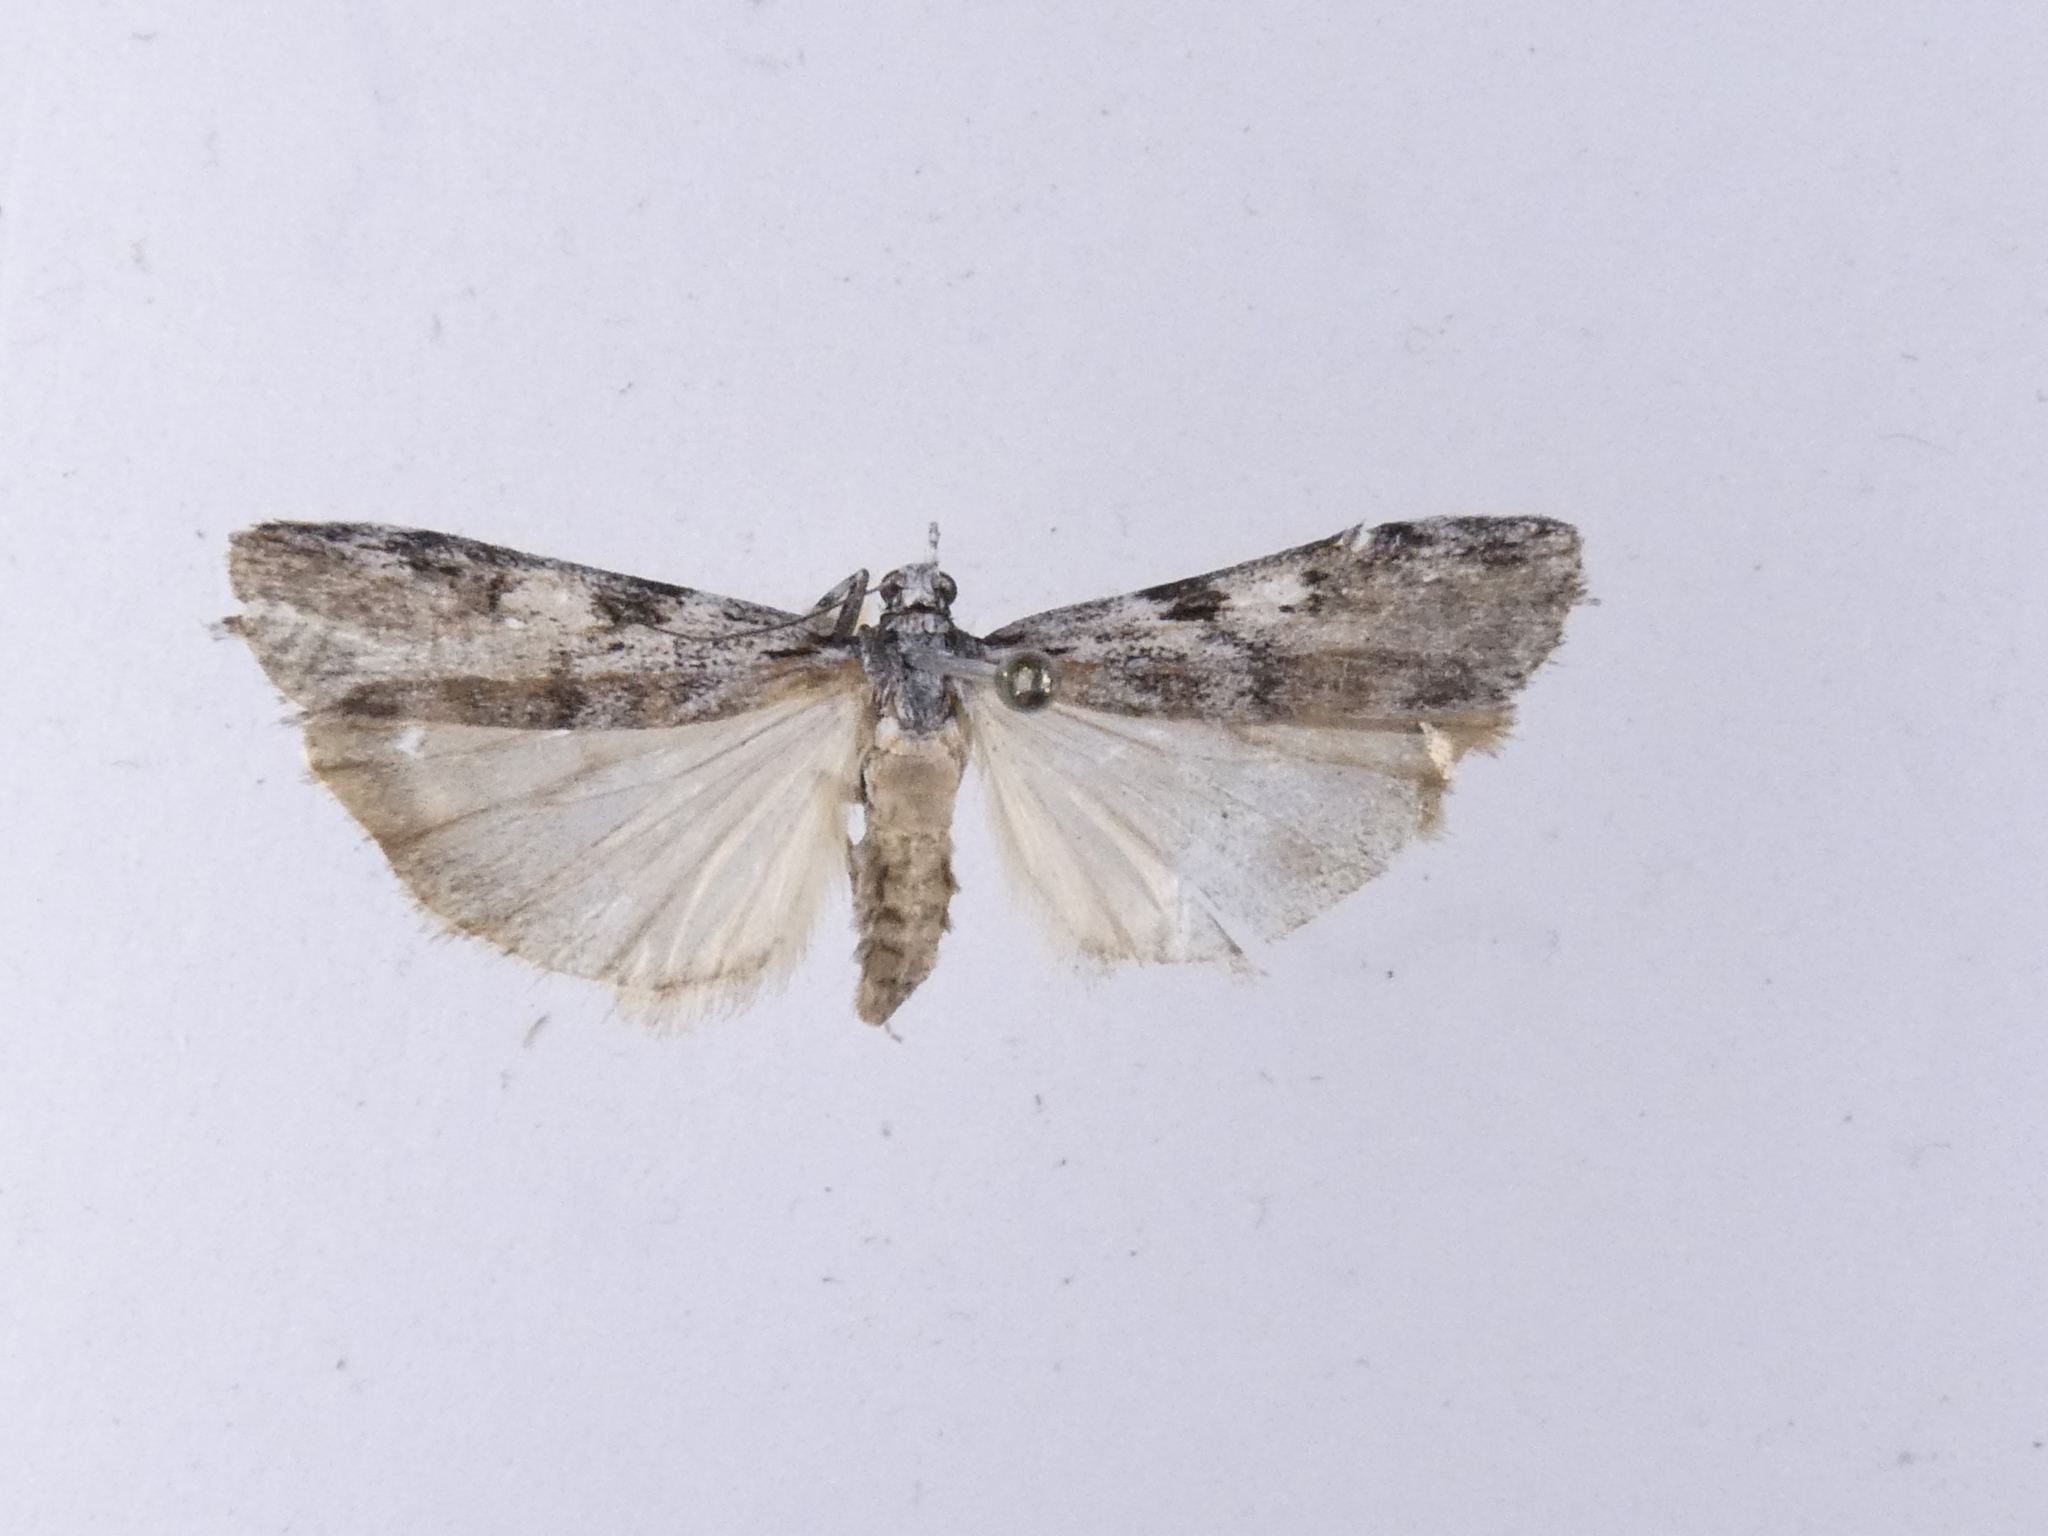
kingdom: Animalia
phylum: Arthropoda
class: Insecta
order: Lepidoptera
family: Crambidae
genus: Scoparia
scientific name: Scoparia halopis
